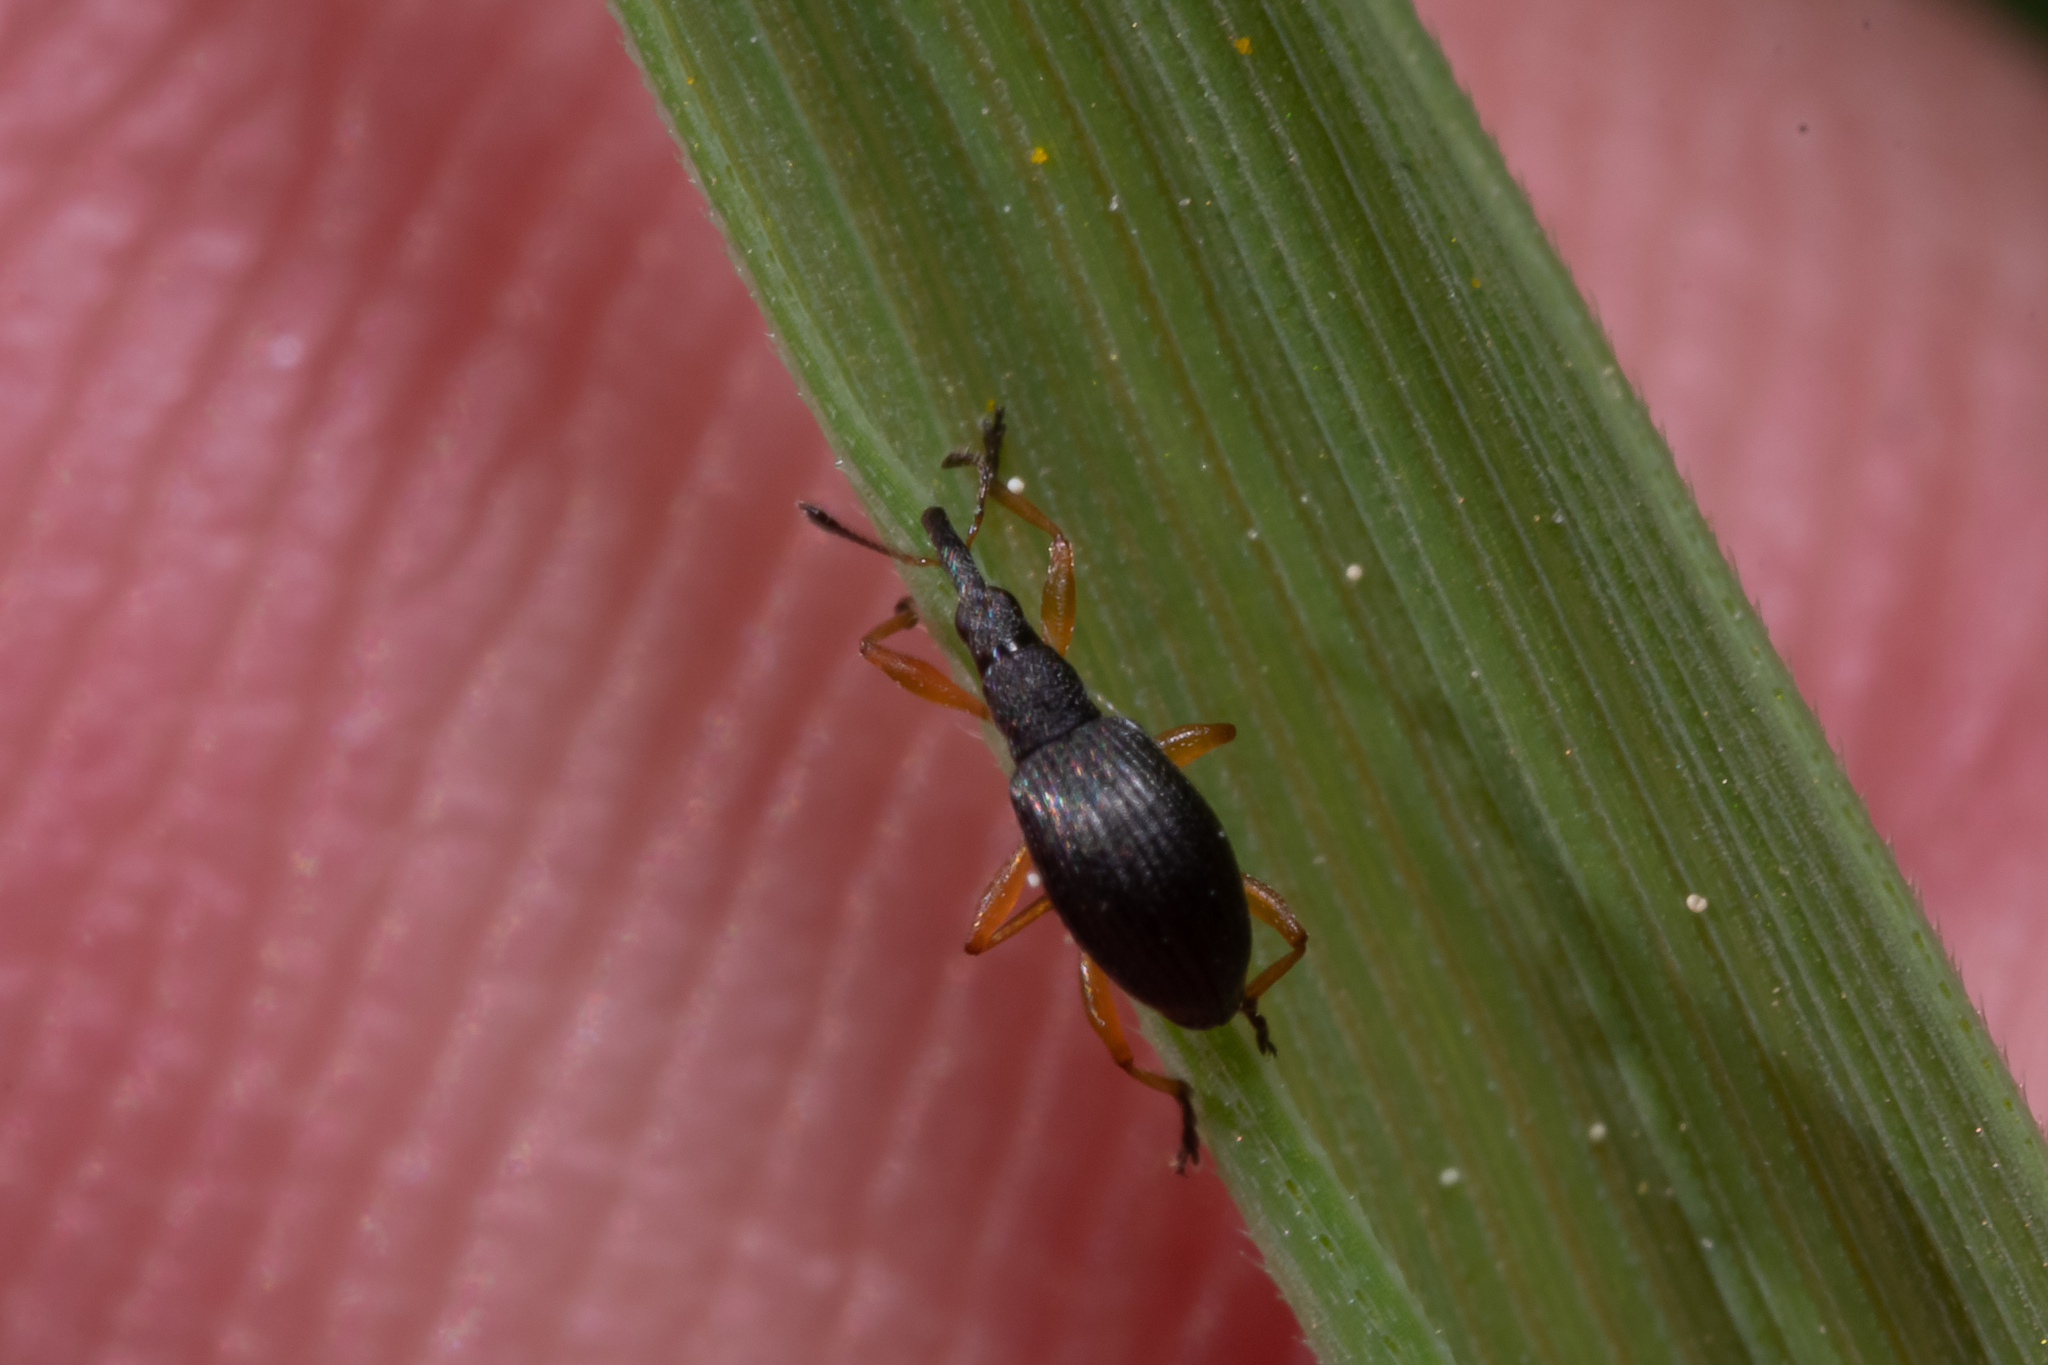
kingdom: Animalia
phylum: Arthropoda
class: Insecta
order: Coleoptera
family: Apionidae
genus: Protapion
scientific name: Protapion fulvipes
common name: White clover seed weevil
